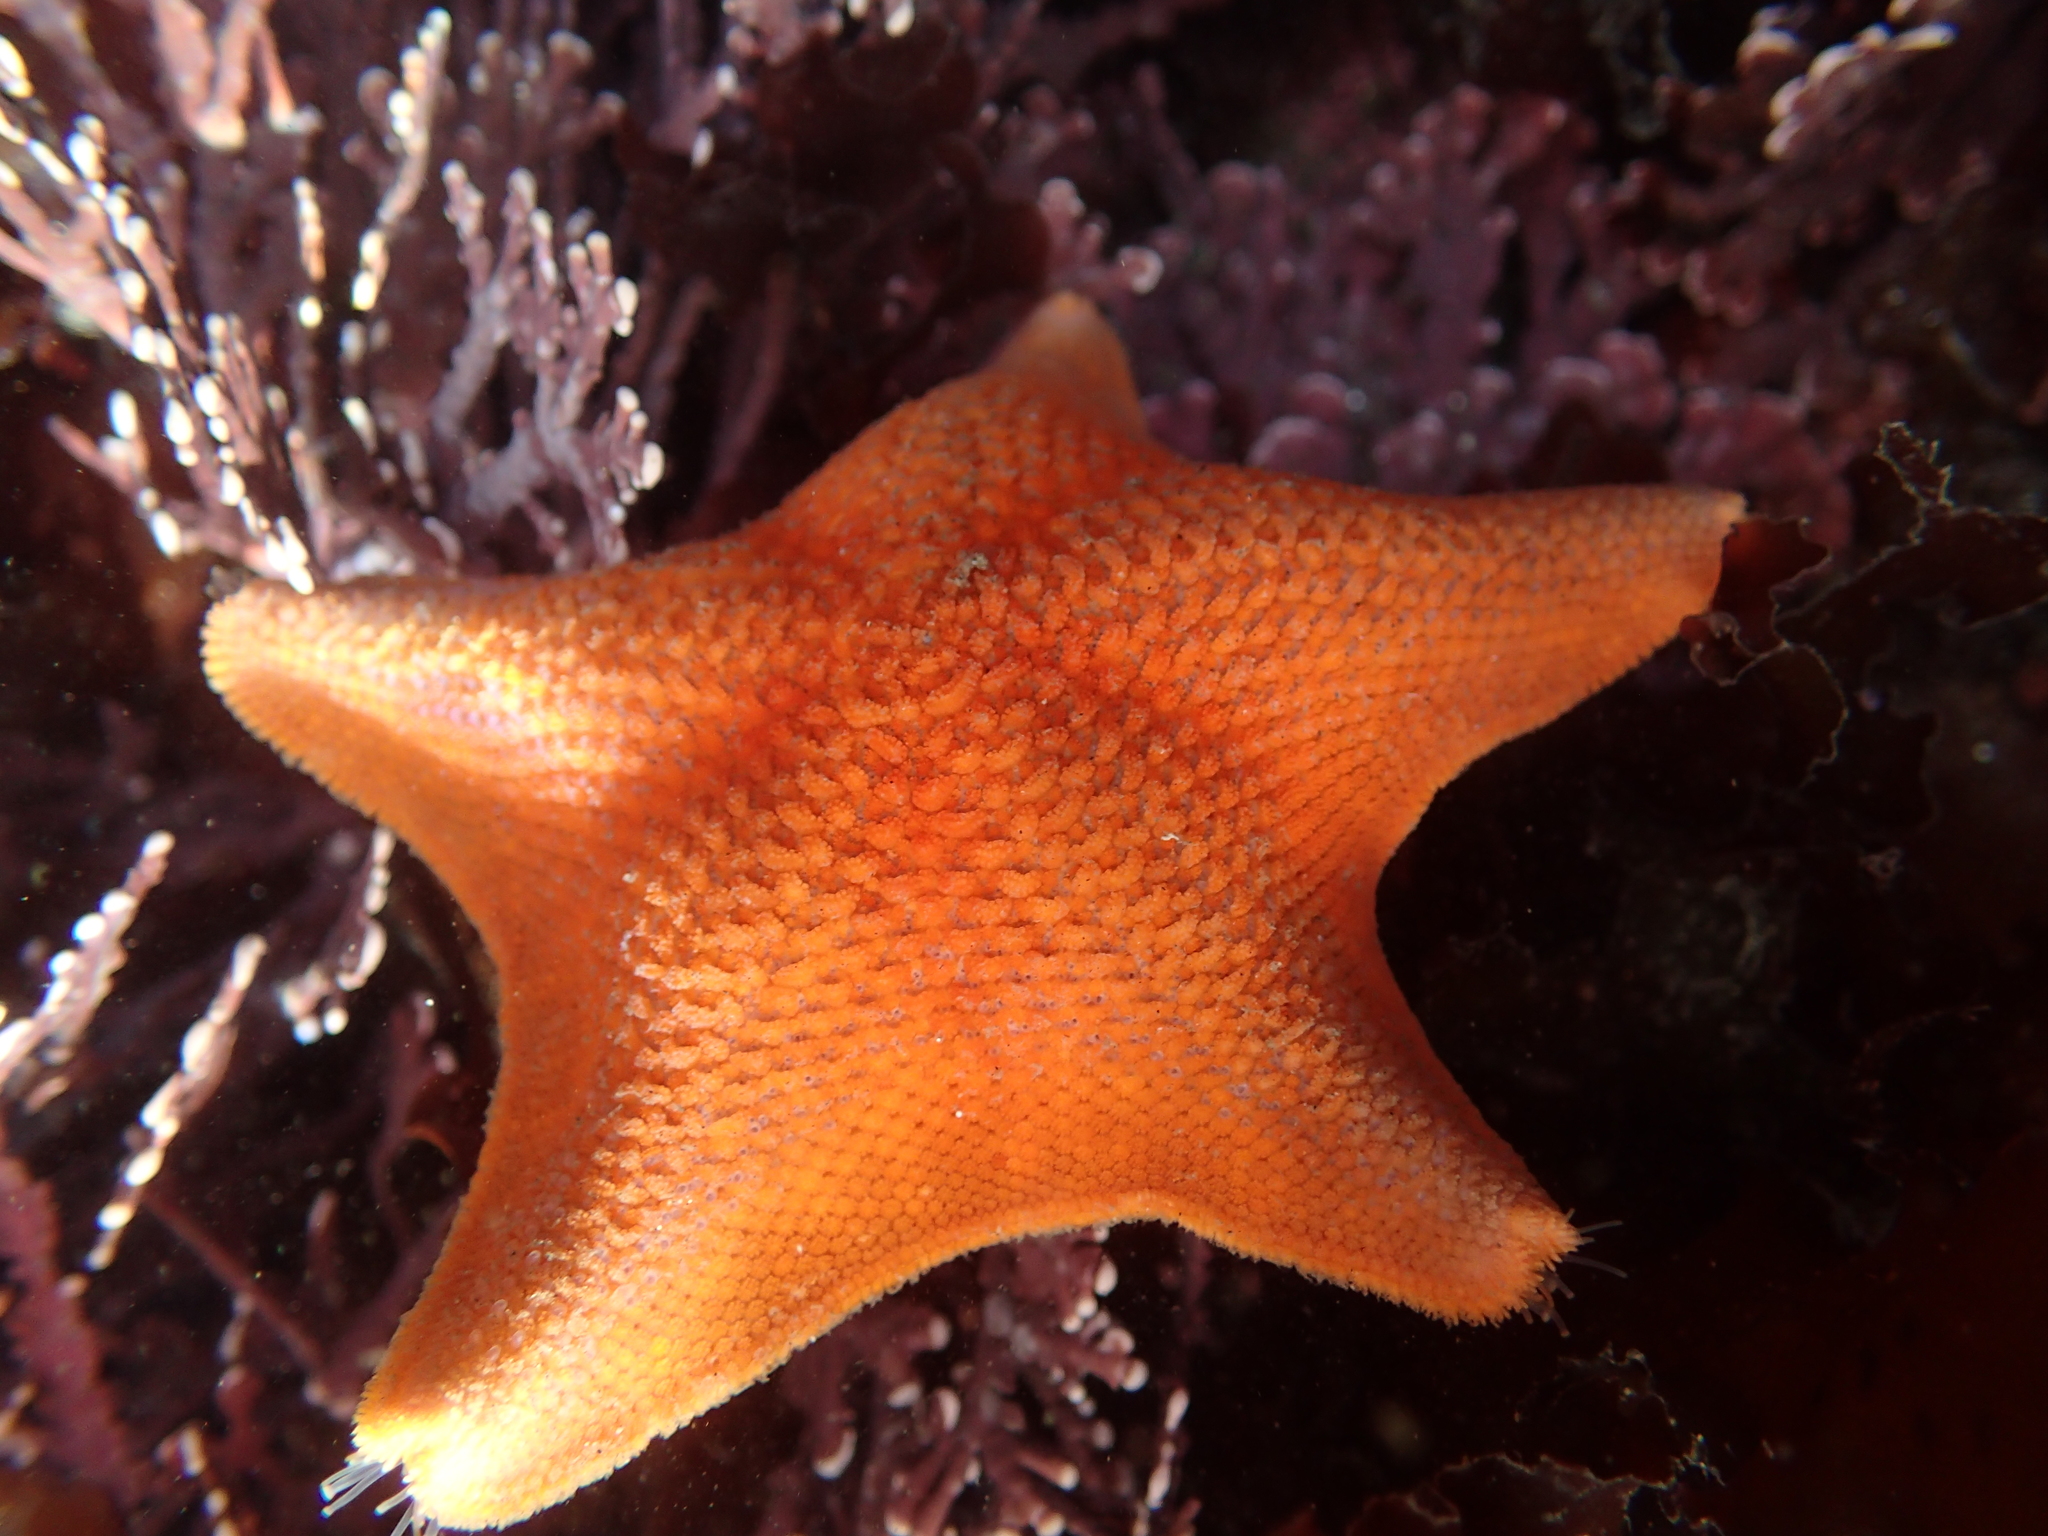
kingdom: Animalia
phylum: Echinodermata
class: Asteroidea
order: Valvatida
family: Asterinidae
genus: Patiria
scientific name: Patiria miniata
